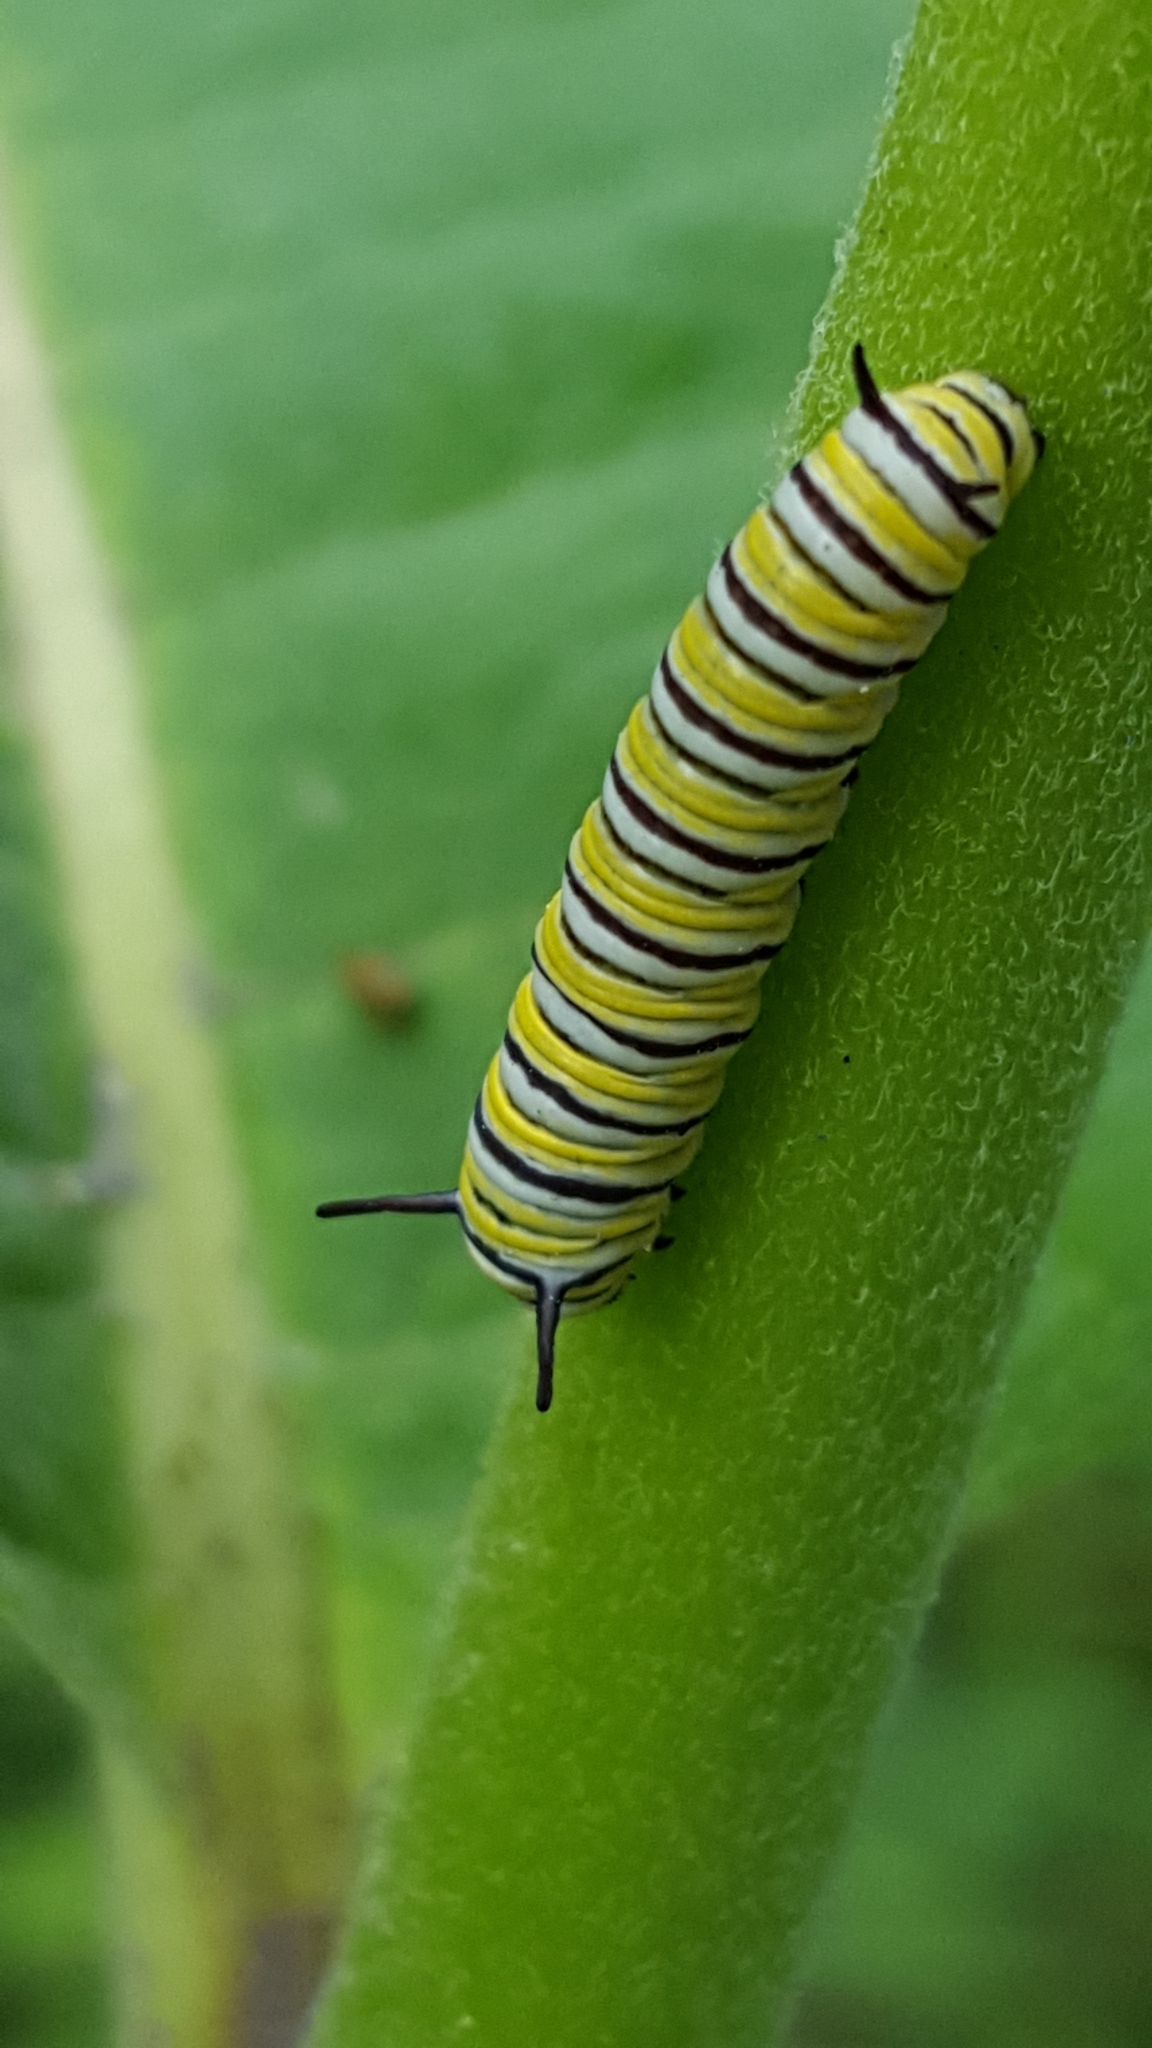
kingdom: Animalia
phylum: Arthropoda
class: Insecta
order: Lepidoptera
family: Nymphalidae
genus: Danaus
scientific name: Danaus plexippus
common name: Monarch
